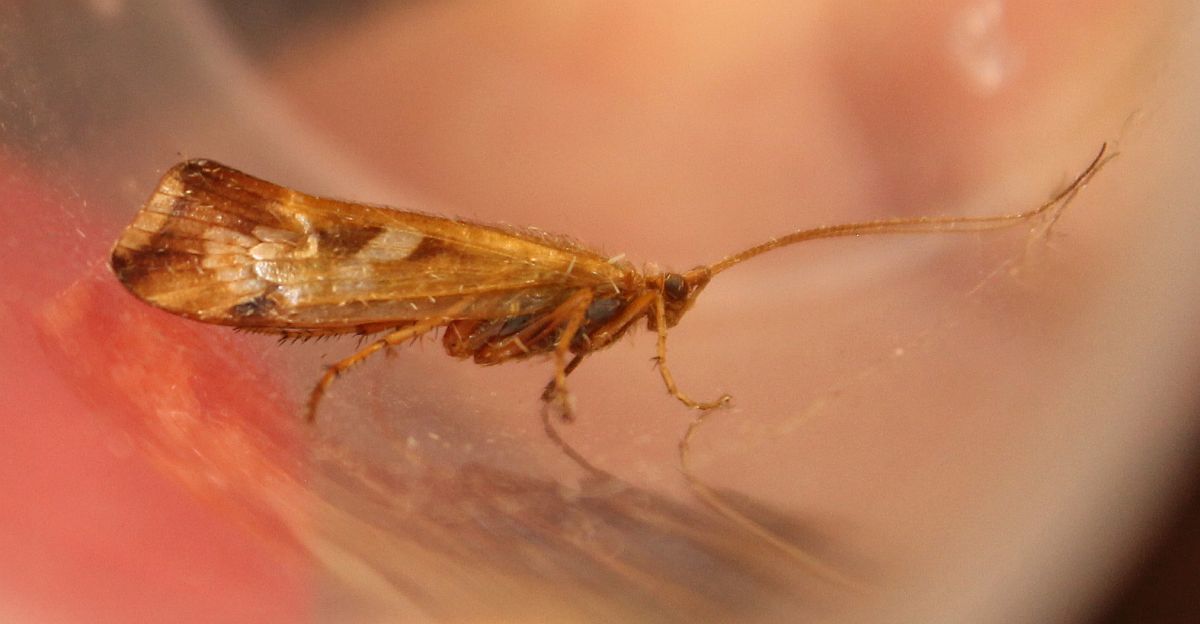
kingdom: Animalia
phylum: Arthropoda
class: Insecta
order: Trichoptera
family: Limnephilidae
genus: Limnephilus
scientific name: Limnephilus lunatus
